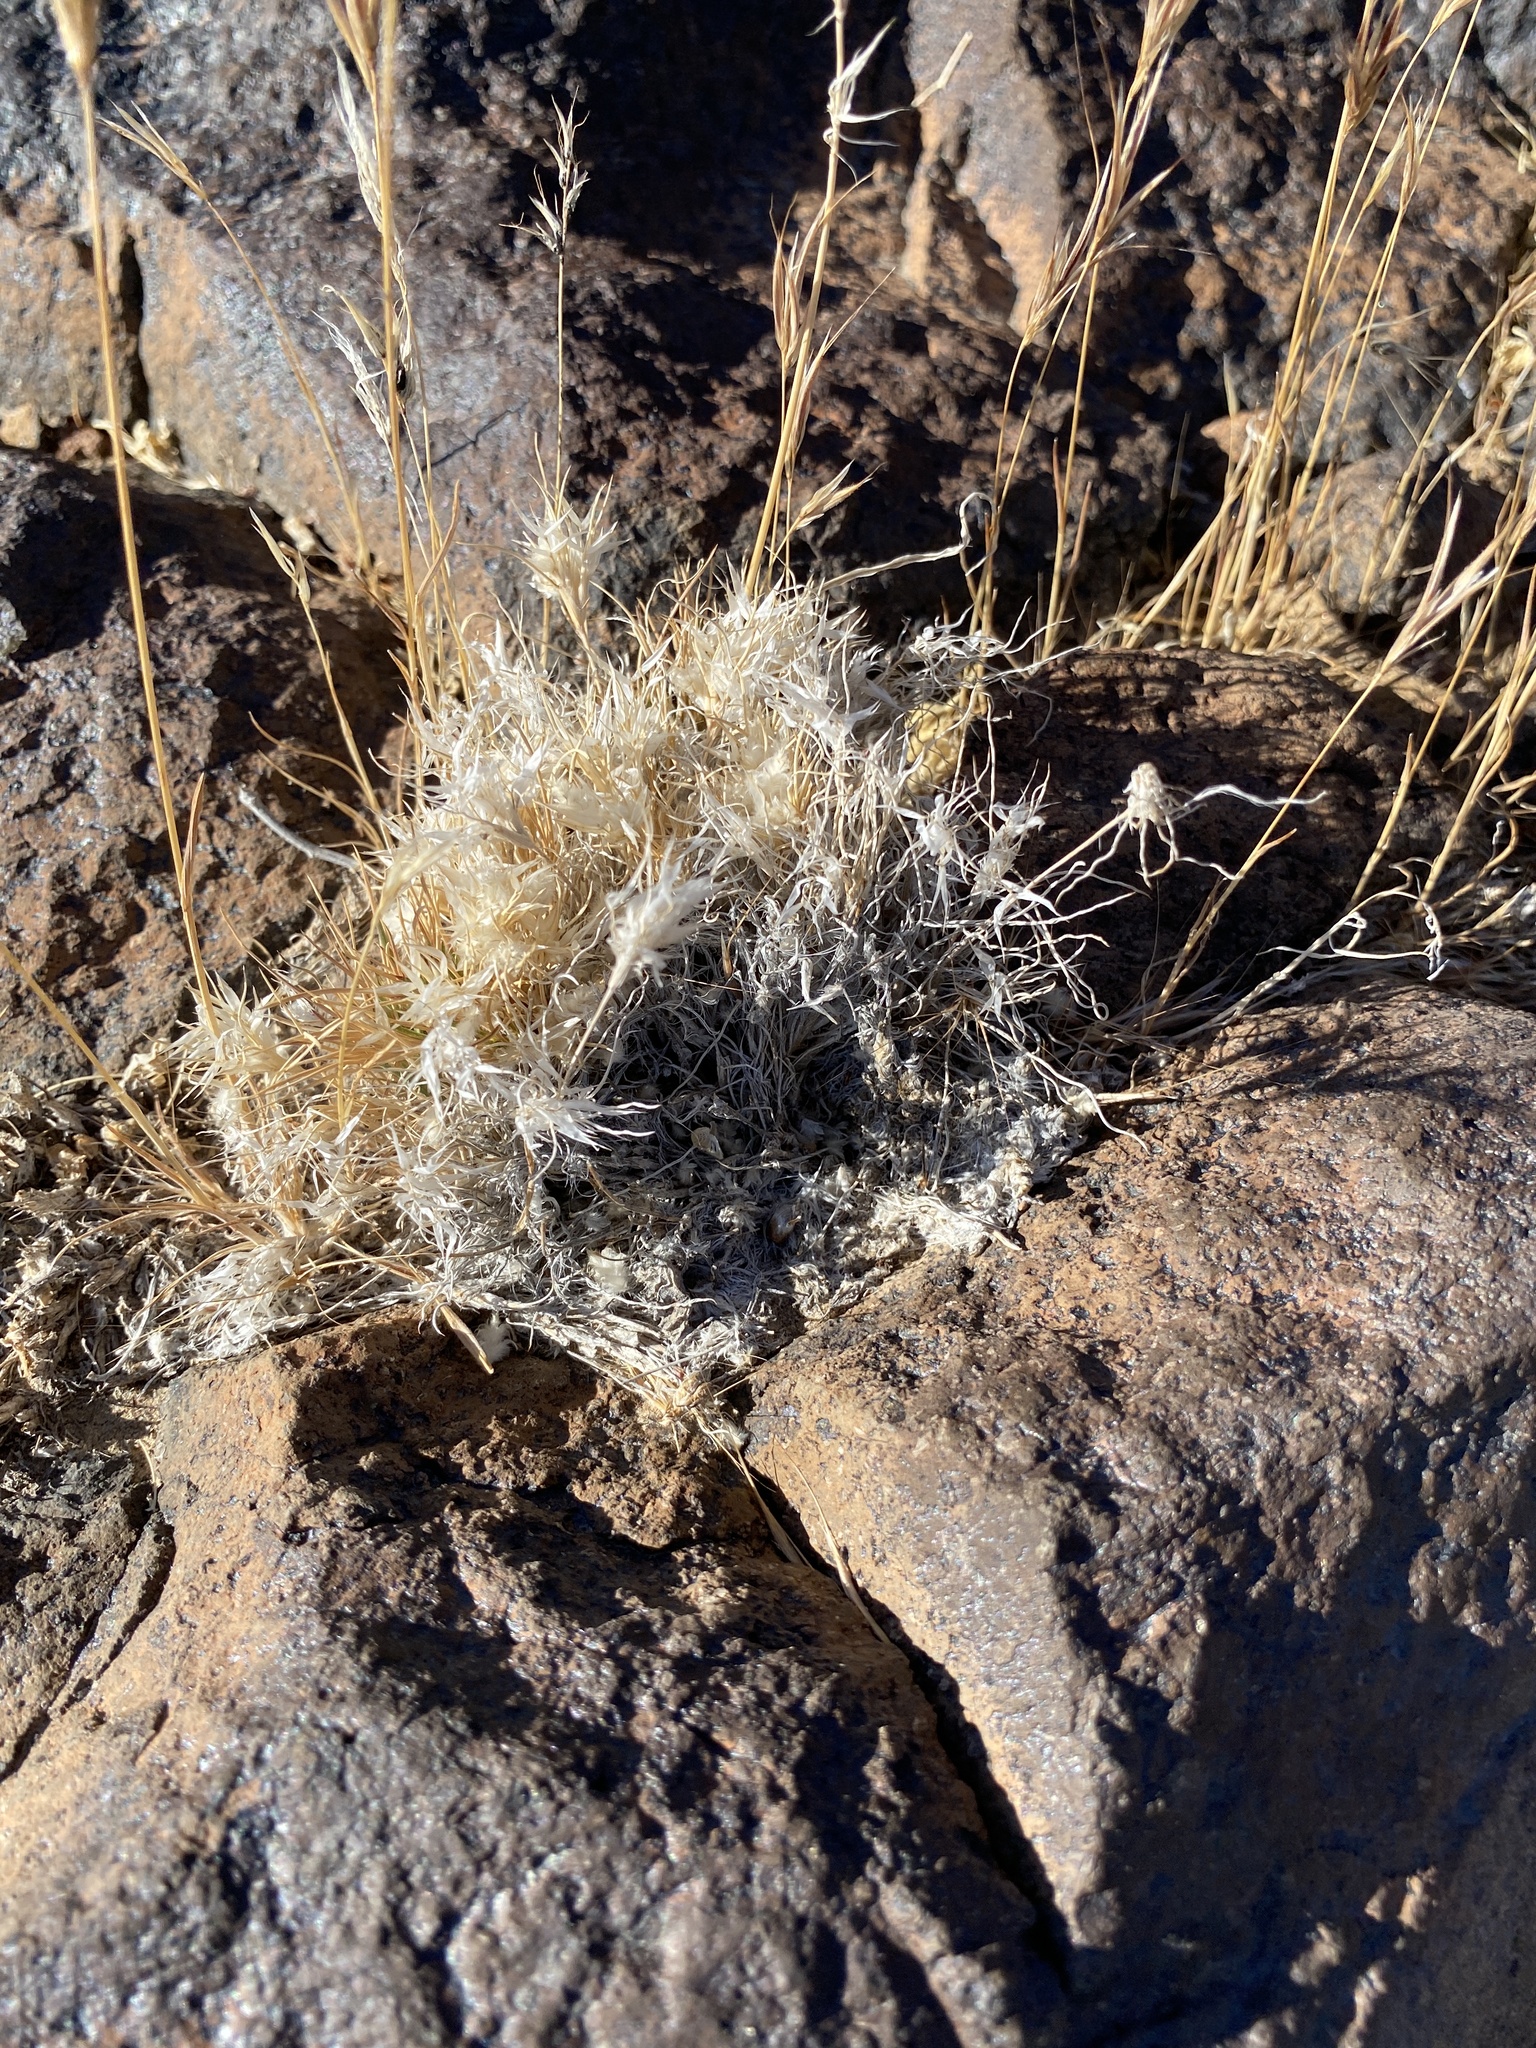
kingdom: Plantae
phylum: Tracheophyta
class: Liliopsida
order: Poales
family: Poaceae
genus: Dasyochloa
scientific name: Dasyochloa pulchella
